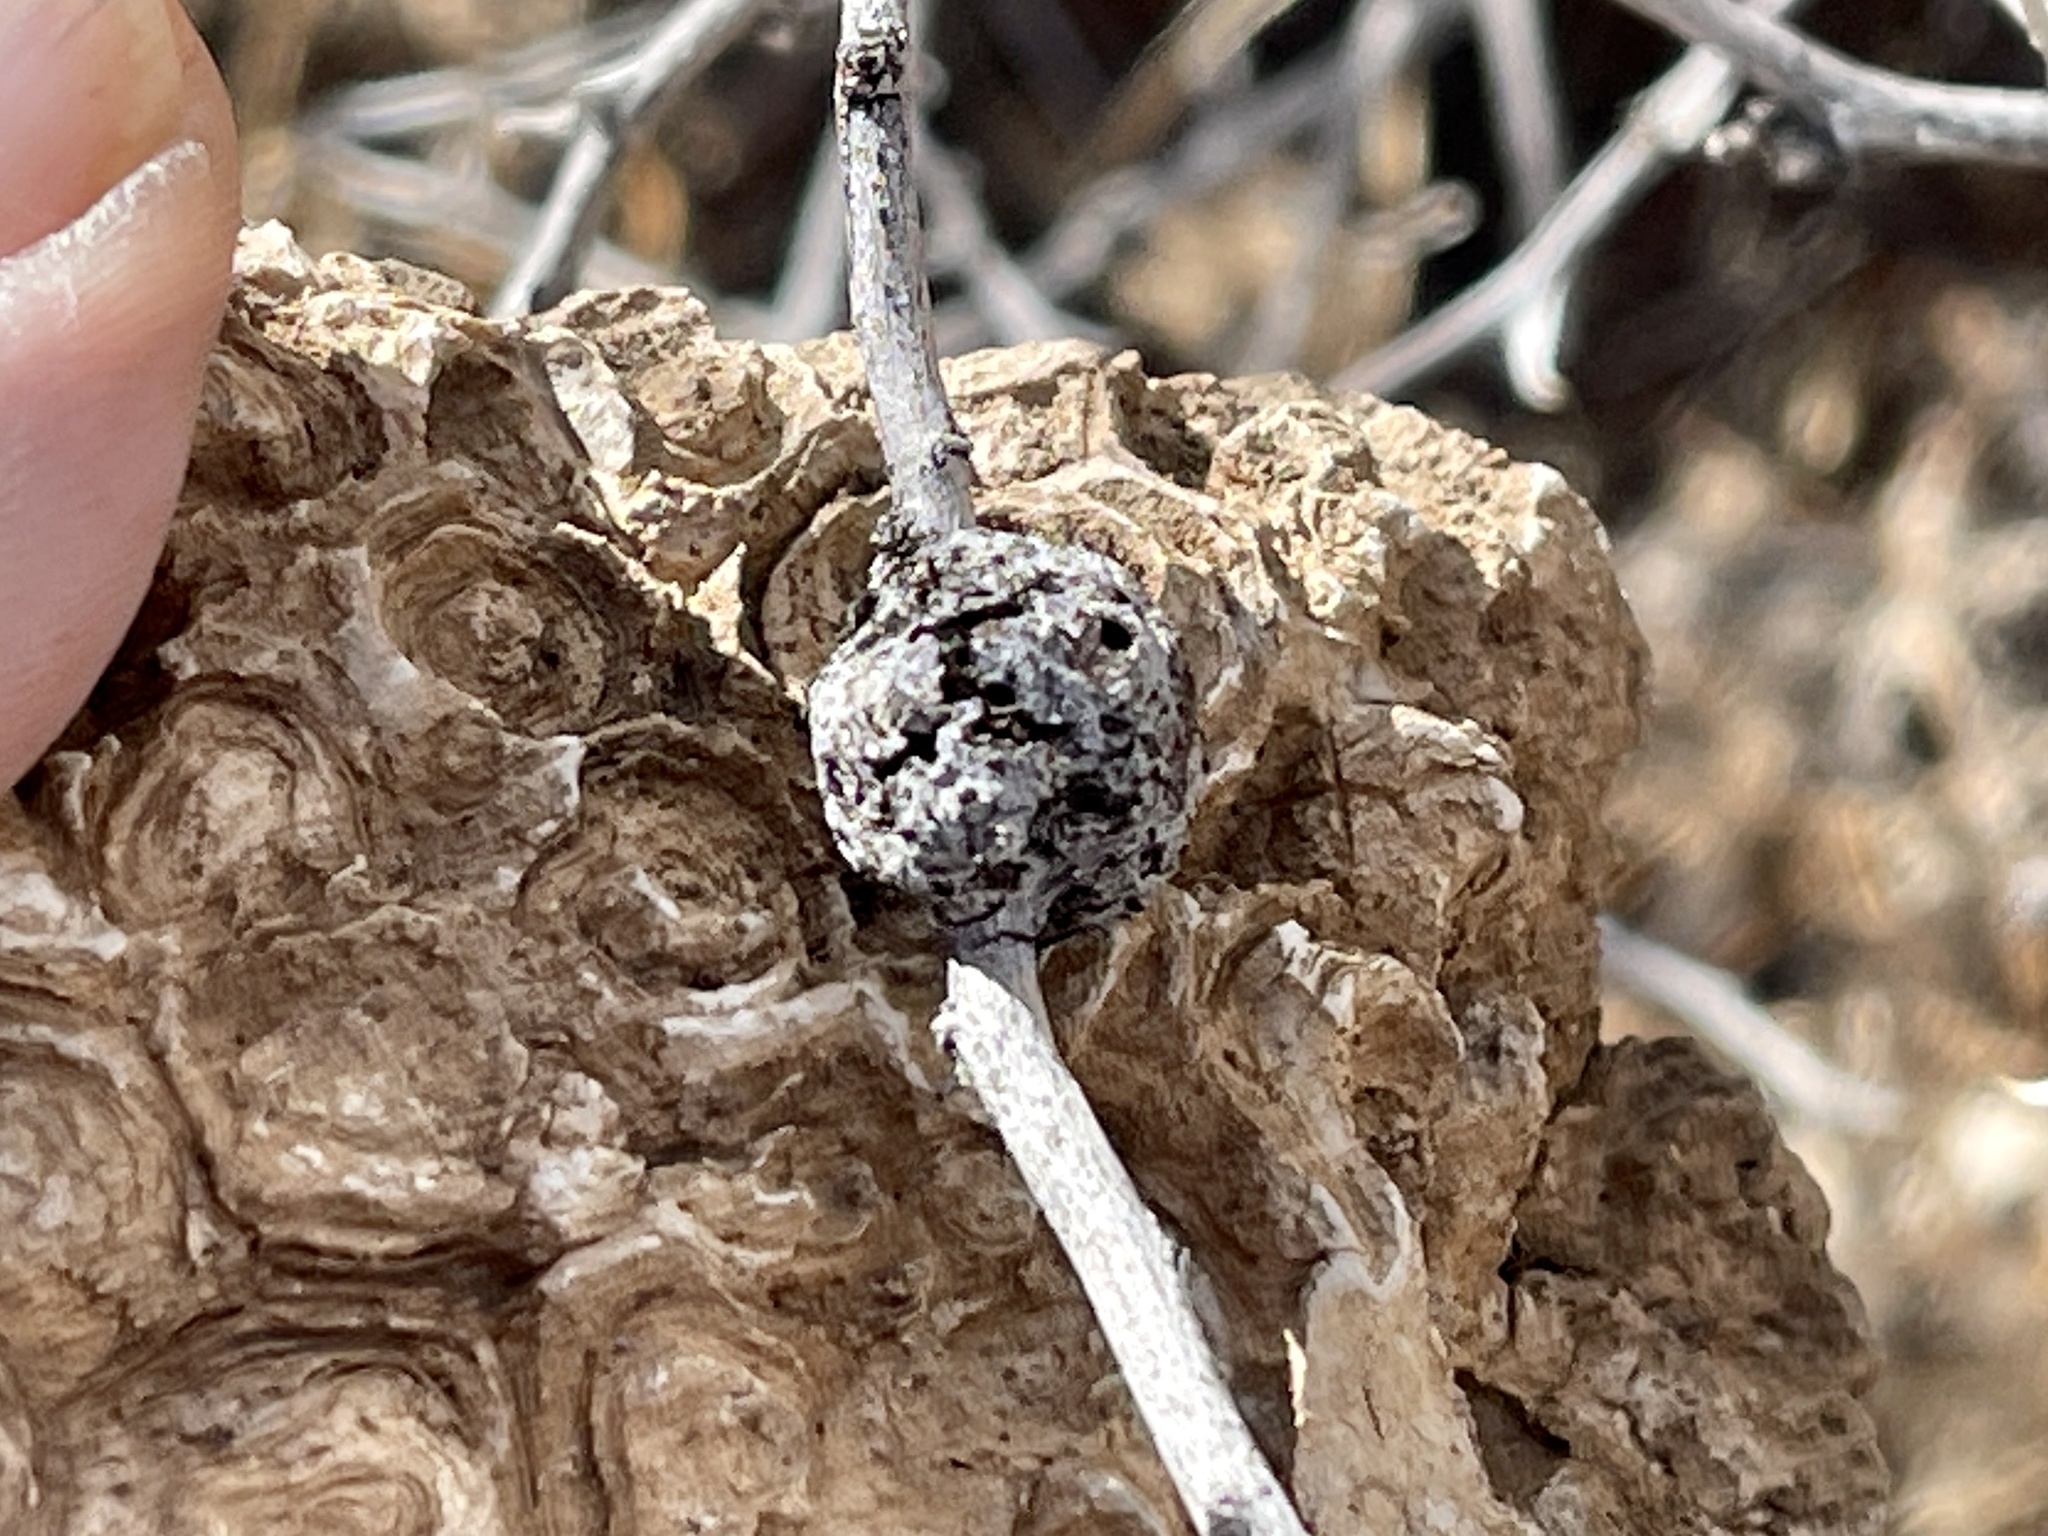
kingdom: Animalia
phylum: Arthropoda
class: Insecta
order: Hymenoptera
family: Tanaostigmatidae
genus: Tanaostigmodes
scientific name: Tanaostigmodes howardii
